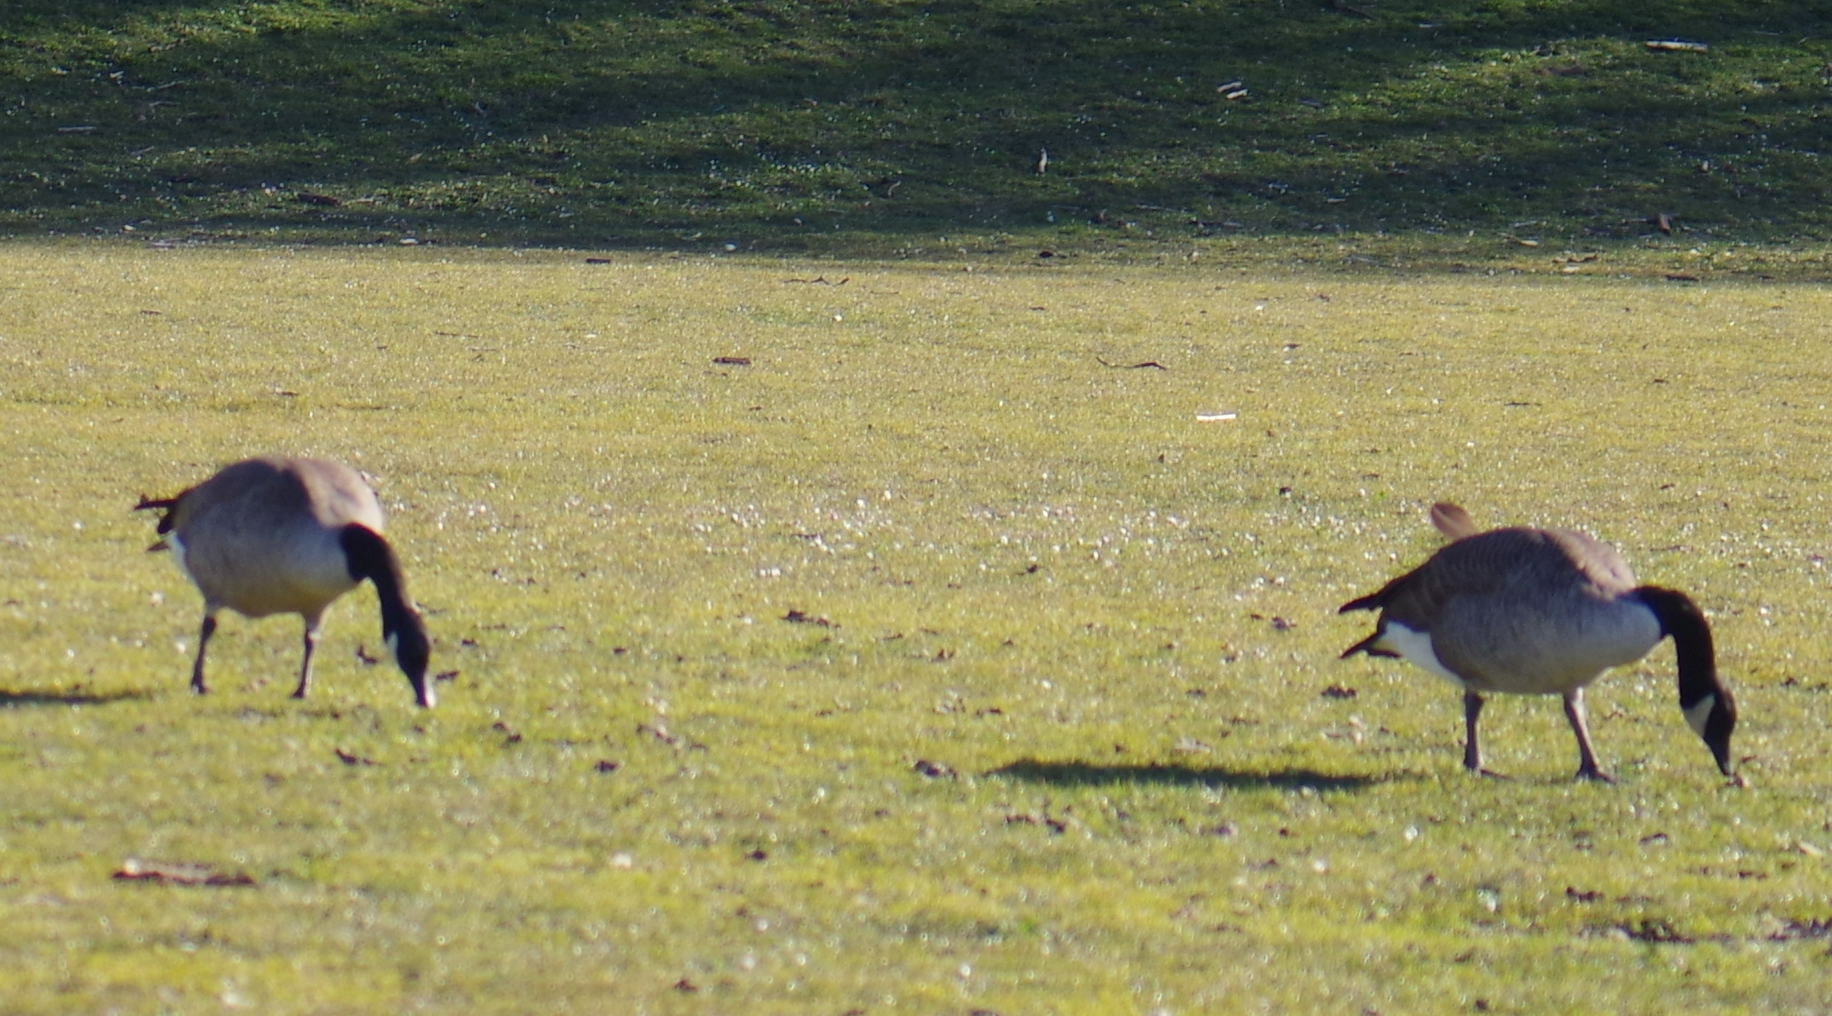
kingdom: Animalia
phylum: Chordata
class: Aves
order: Anseriformes
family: Anatidae
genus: Branta
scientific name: Branta canadensis
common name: Canada goose
